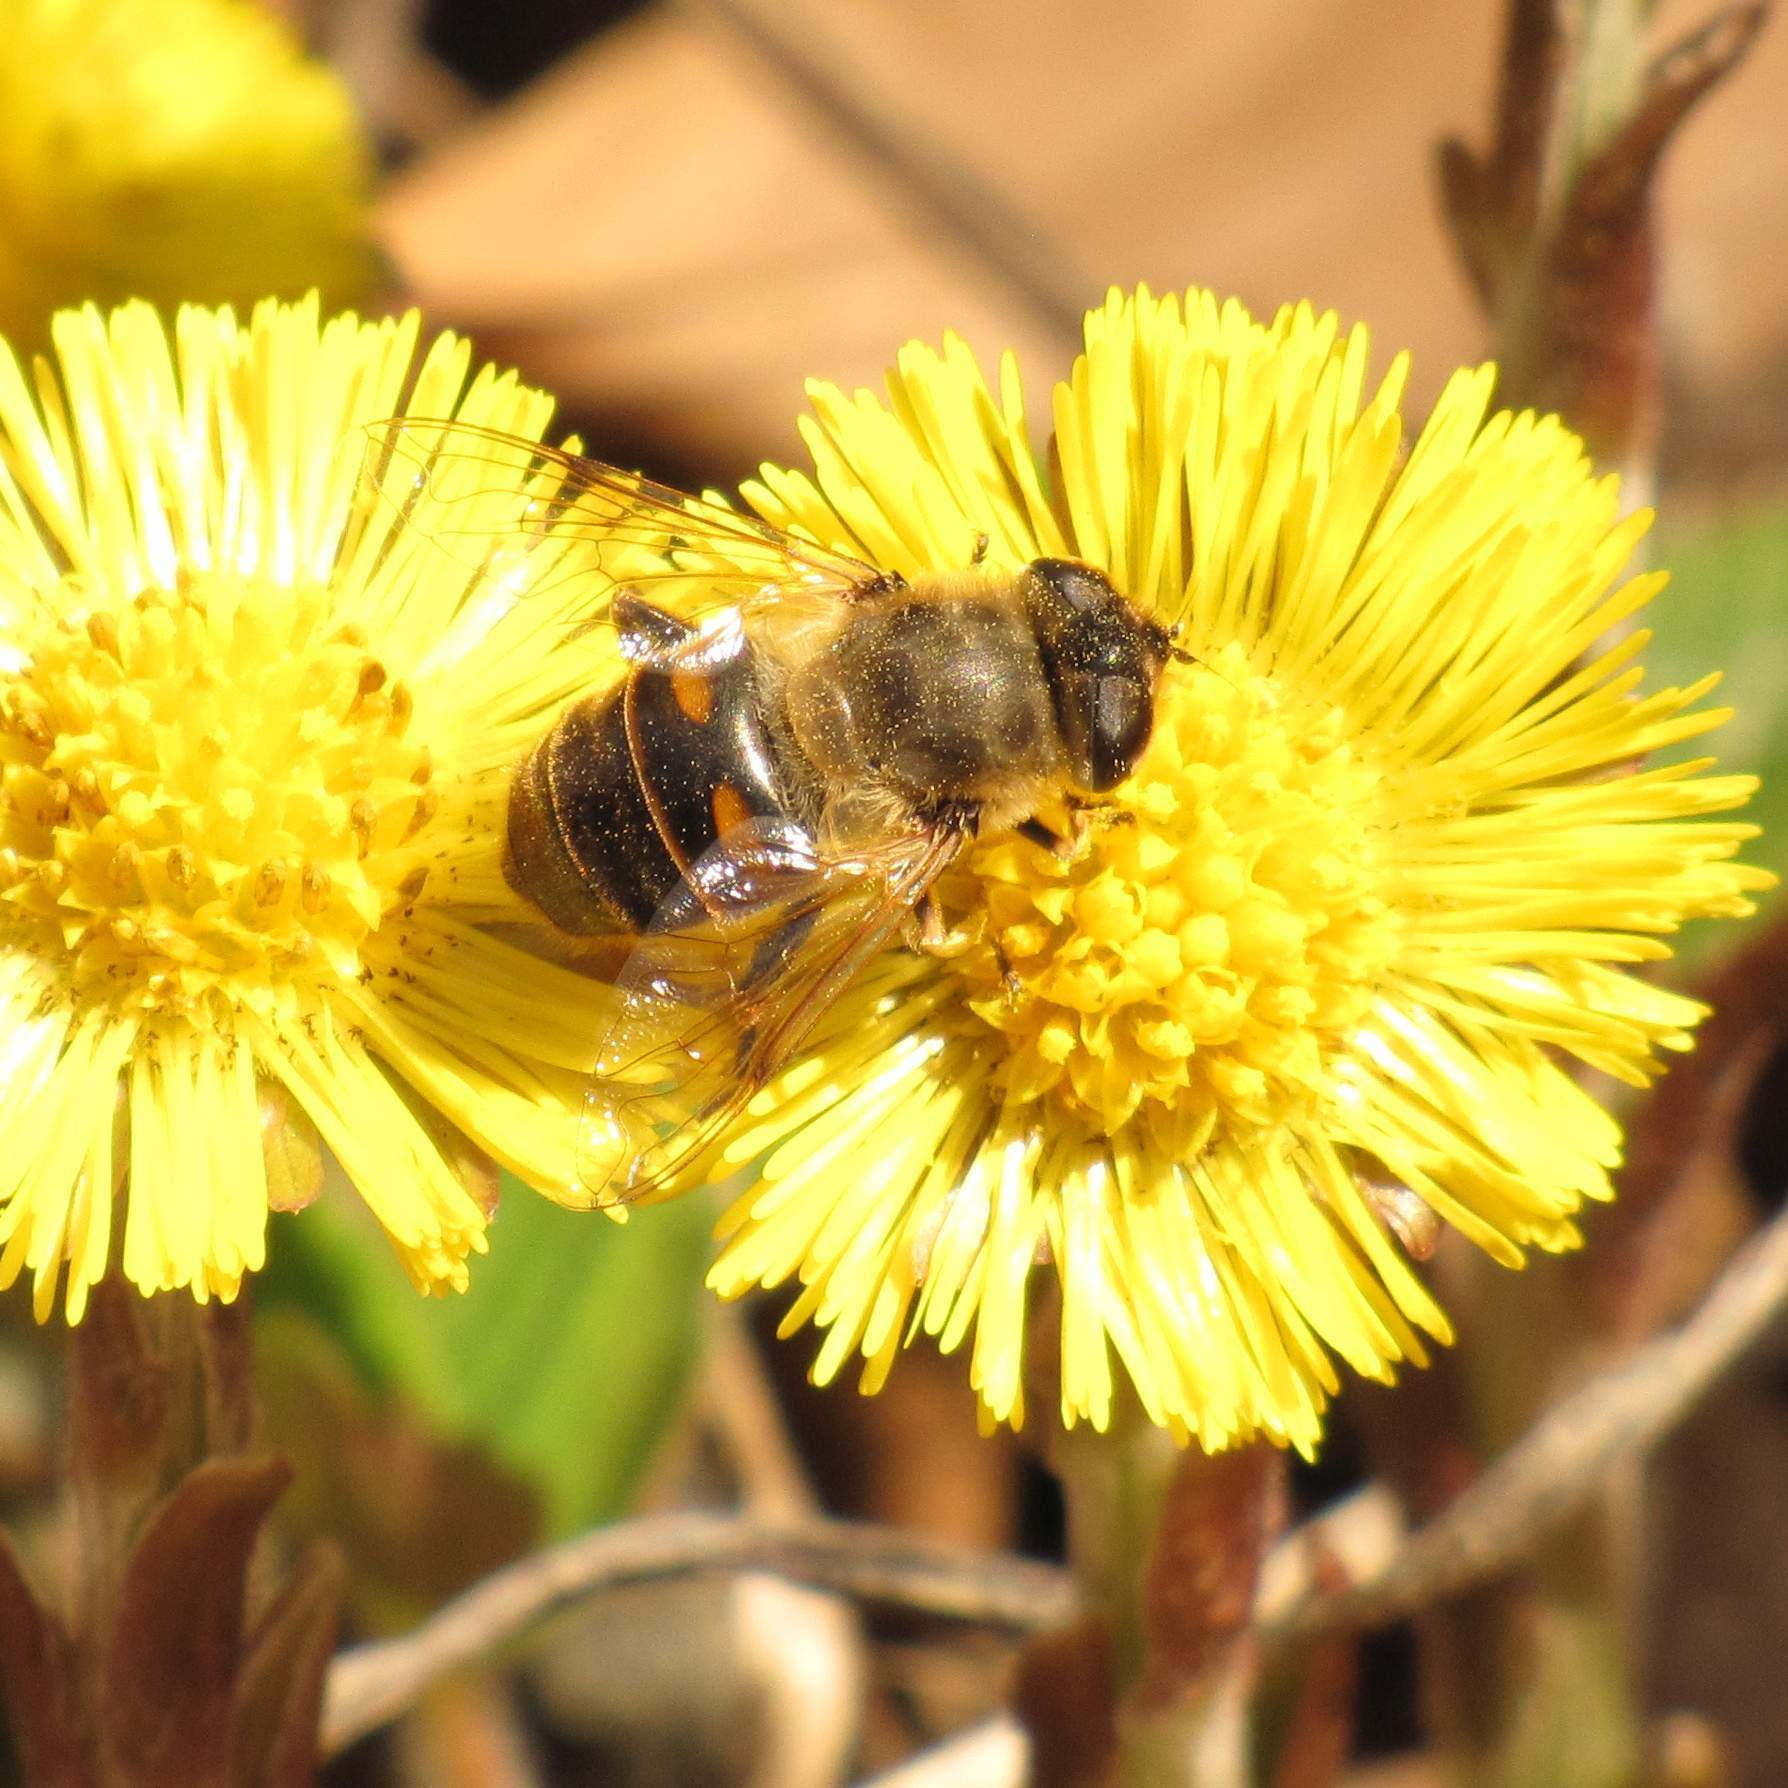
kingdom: Animalia
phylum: Arthropoda
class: Insecta
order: Diptera
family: Syrphidae
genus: Eristalis
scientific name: Eristalis tenax
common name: Drone fly
